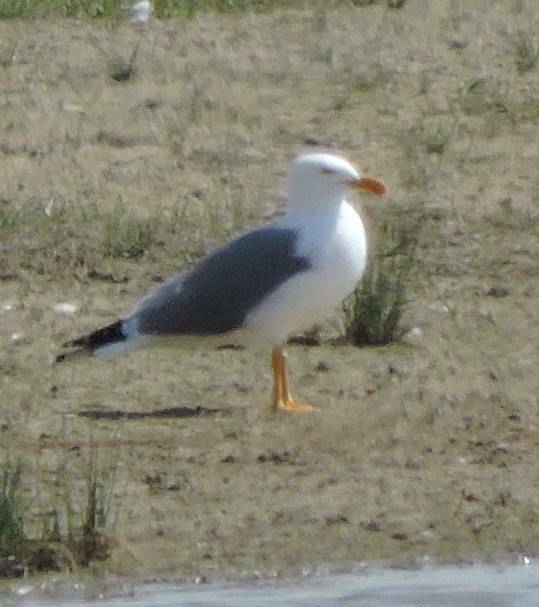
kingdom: Animalia
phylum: Chordata
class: Aves
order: Charadriiformes
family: Laridae
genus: Larus
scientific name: Larus michahellis
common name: Yellow-legged gull
